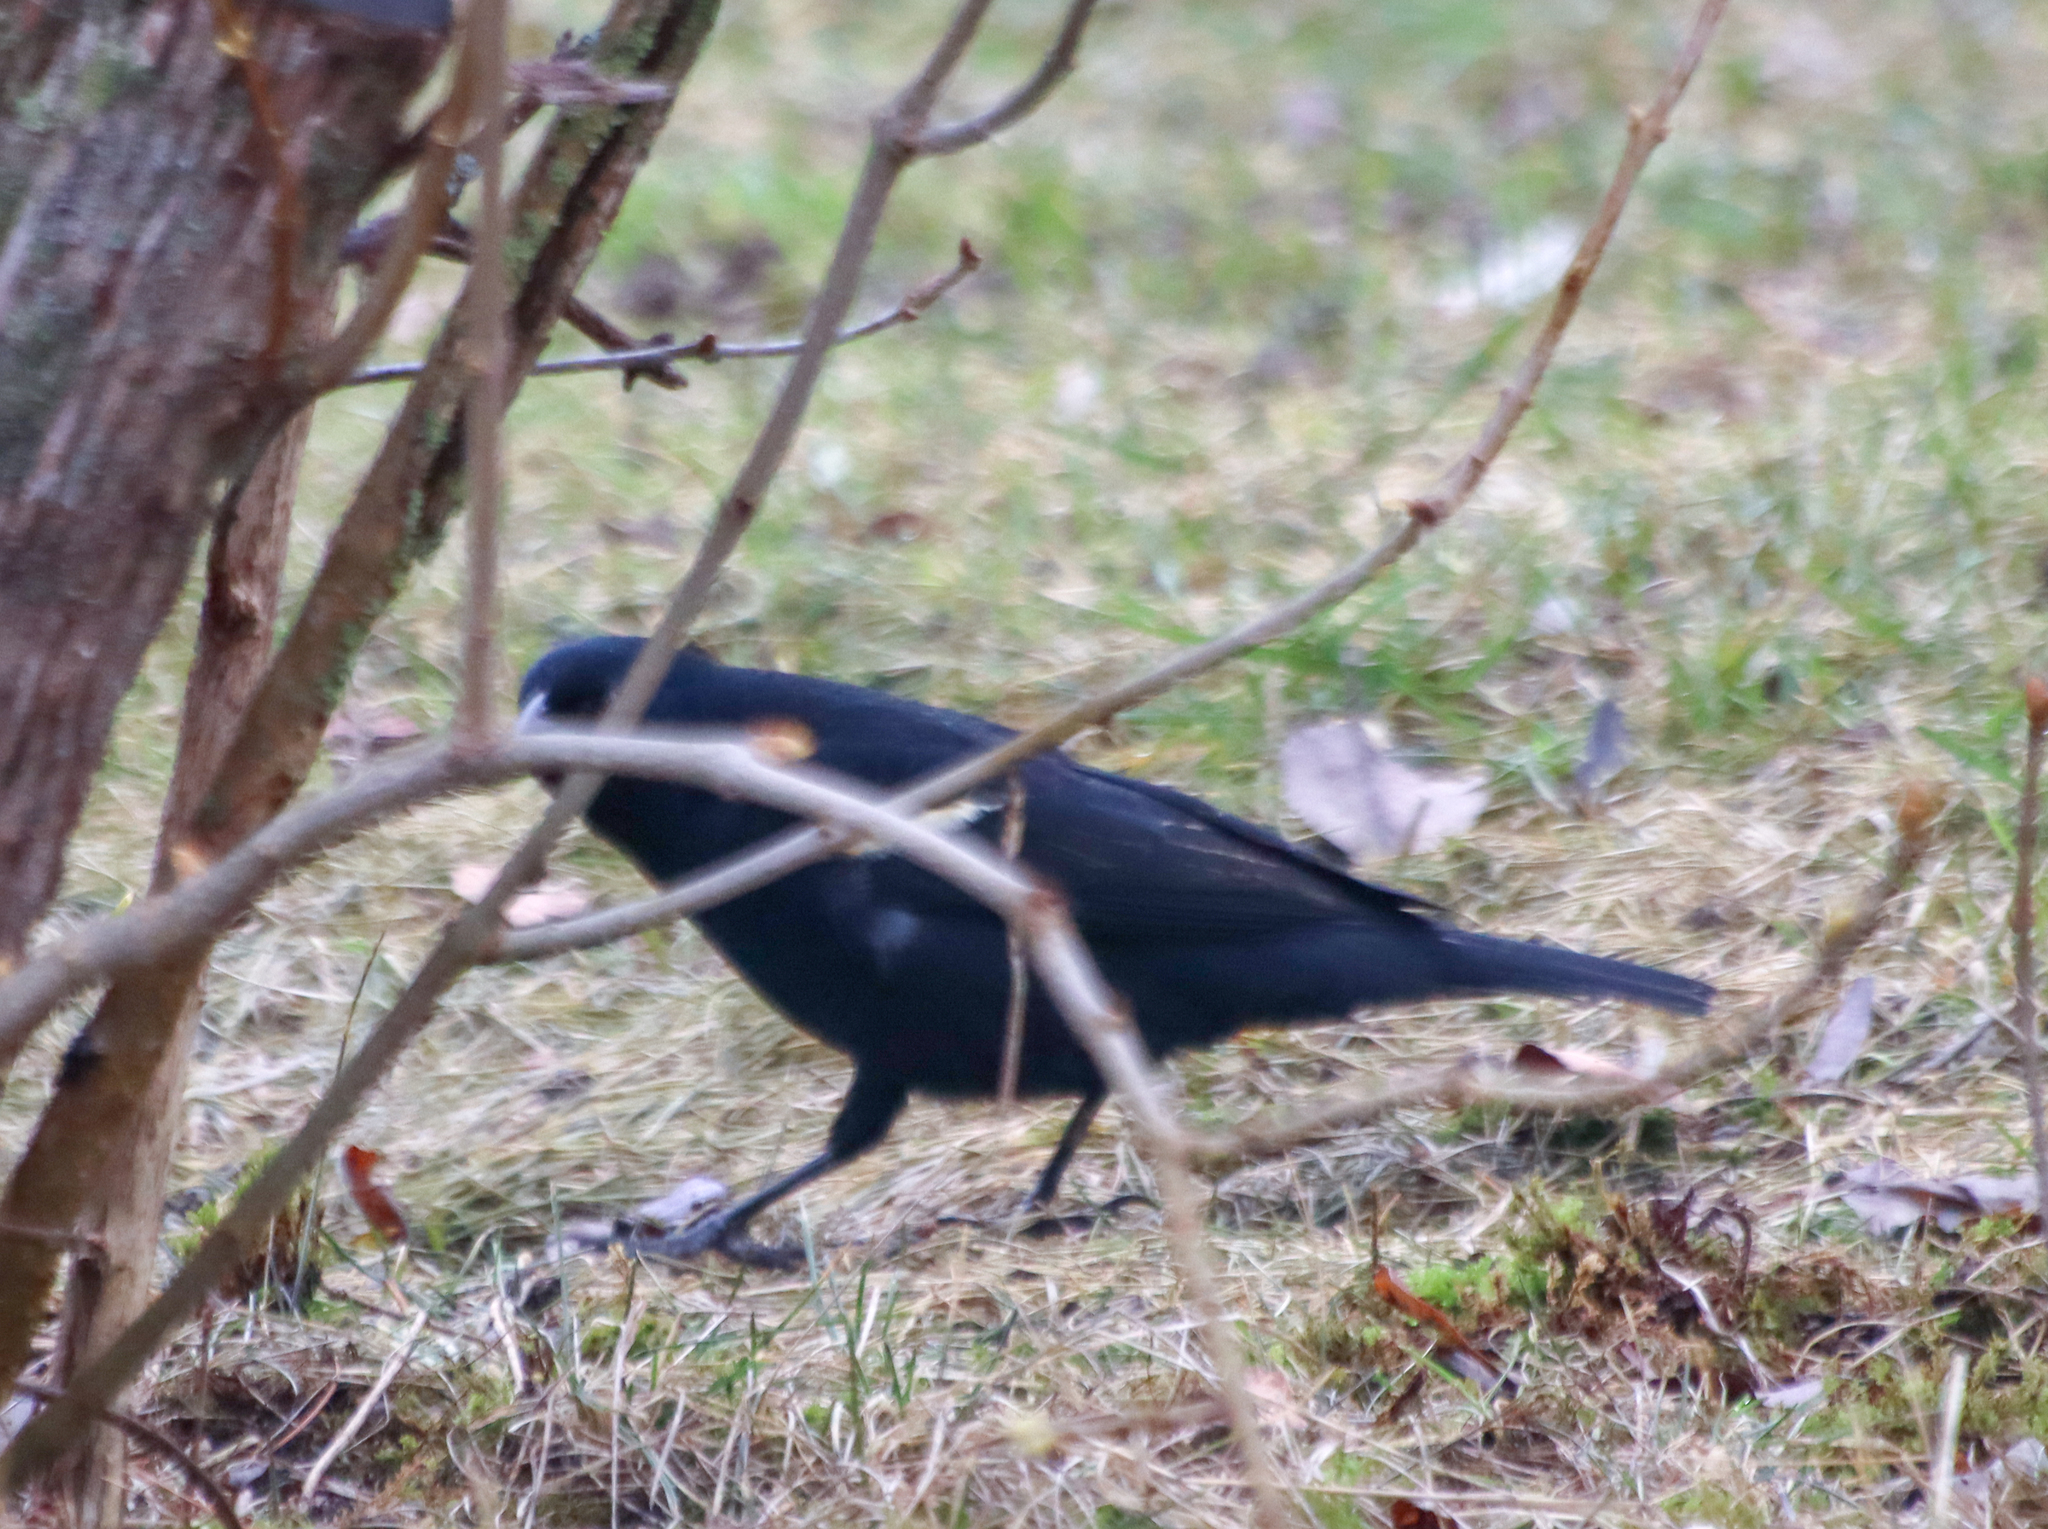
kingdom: Animalia
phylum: Chordata
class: Aves
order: Passeriformes
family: Icteridae
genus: Agelaius
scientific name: Agelaius phoeniceus
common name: Red-winged blackbird
